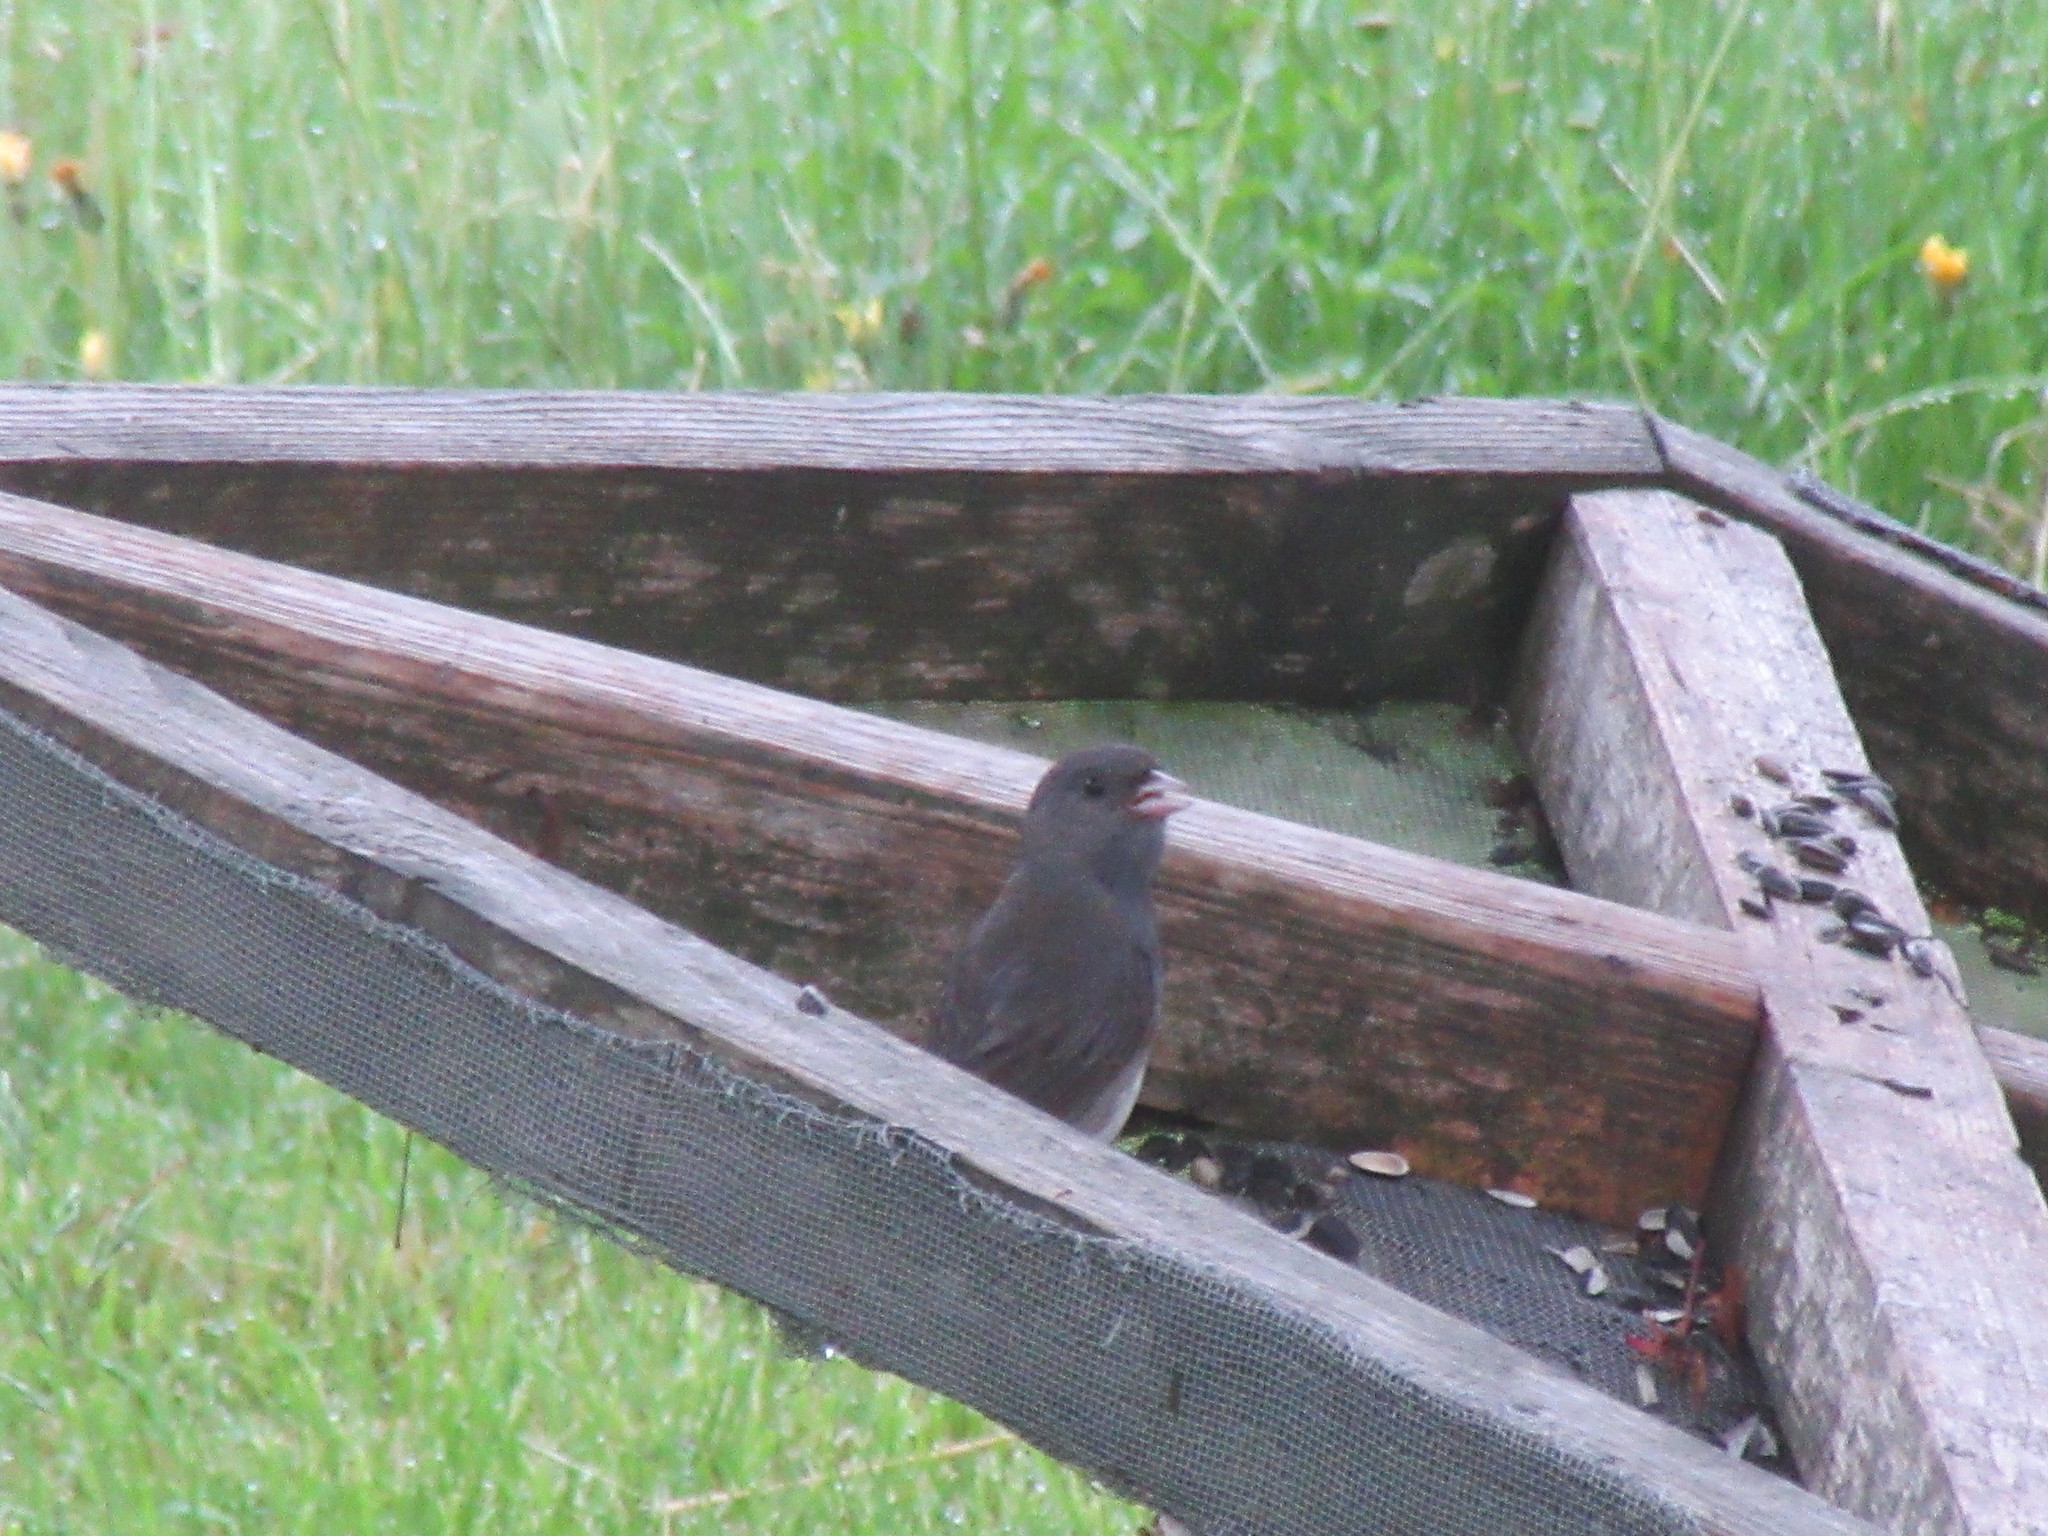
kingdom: Animalia
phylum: Chordata
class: Aves
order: Passeriformes
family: Passerellidae
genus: Junco
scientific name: Junco hyemalis
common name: Dark-eyed junco
